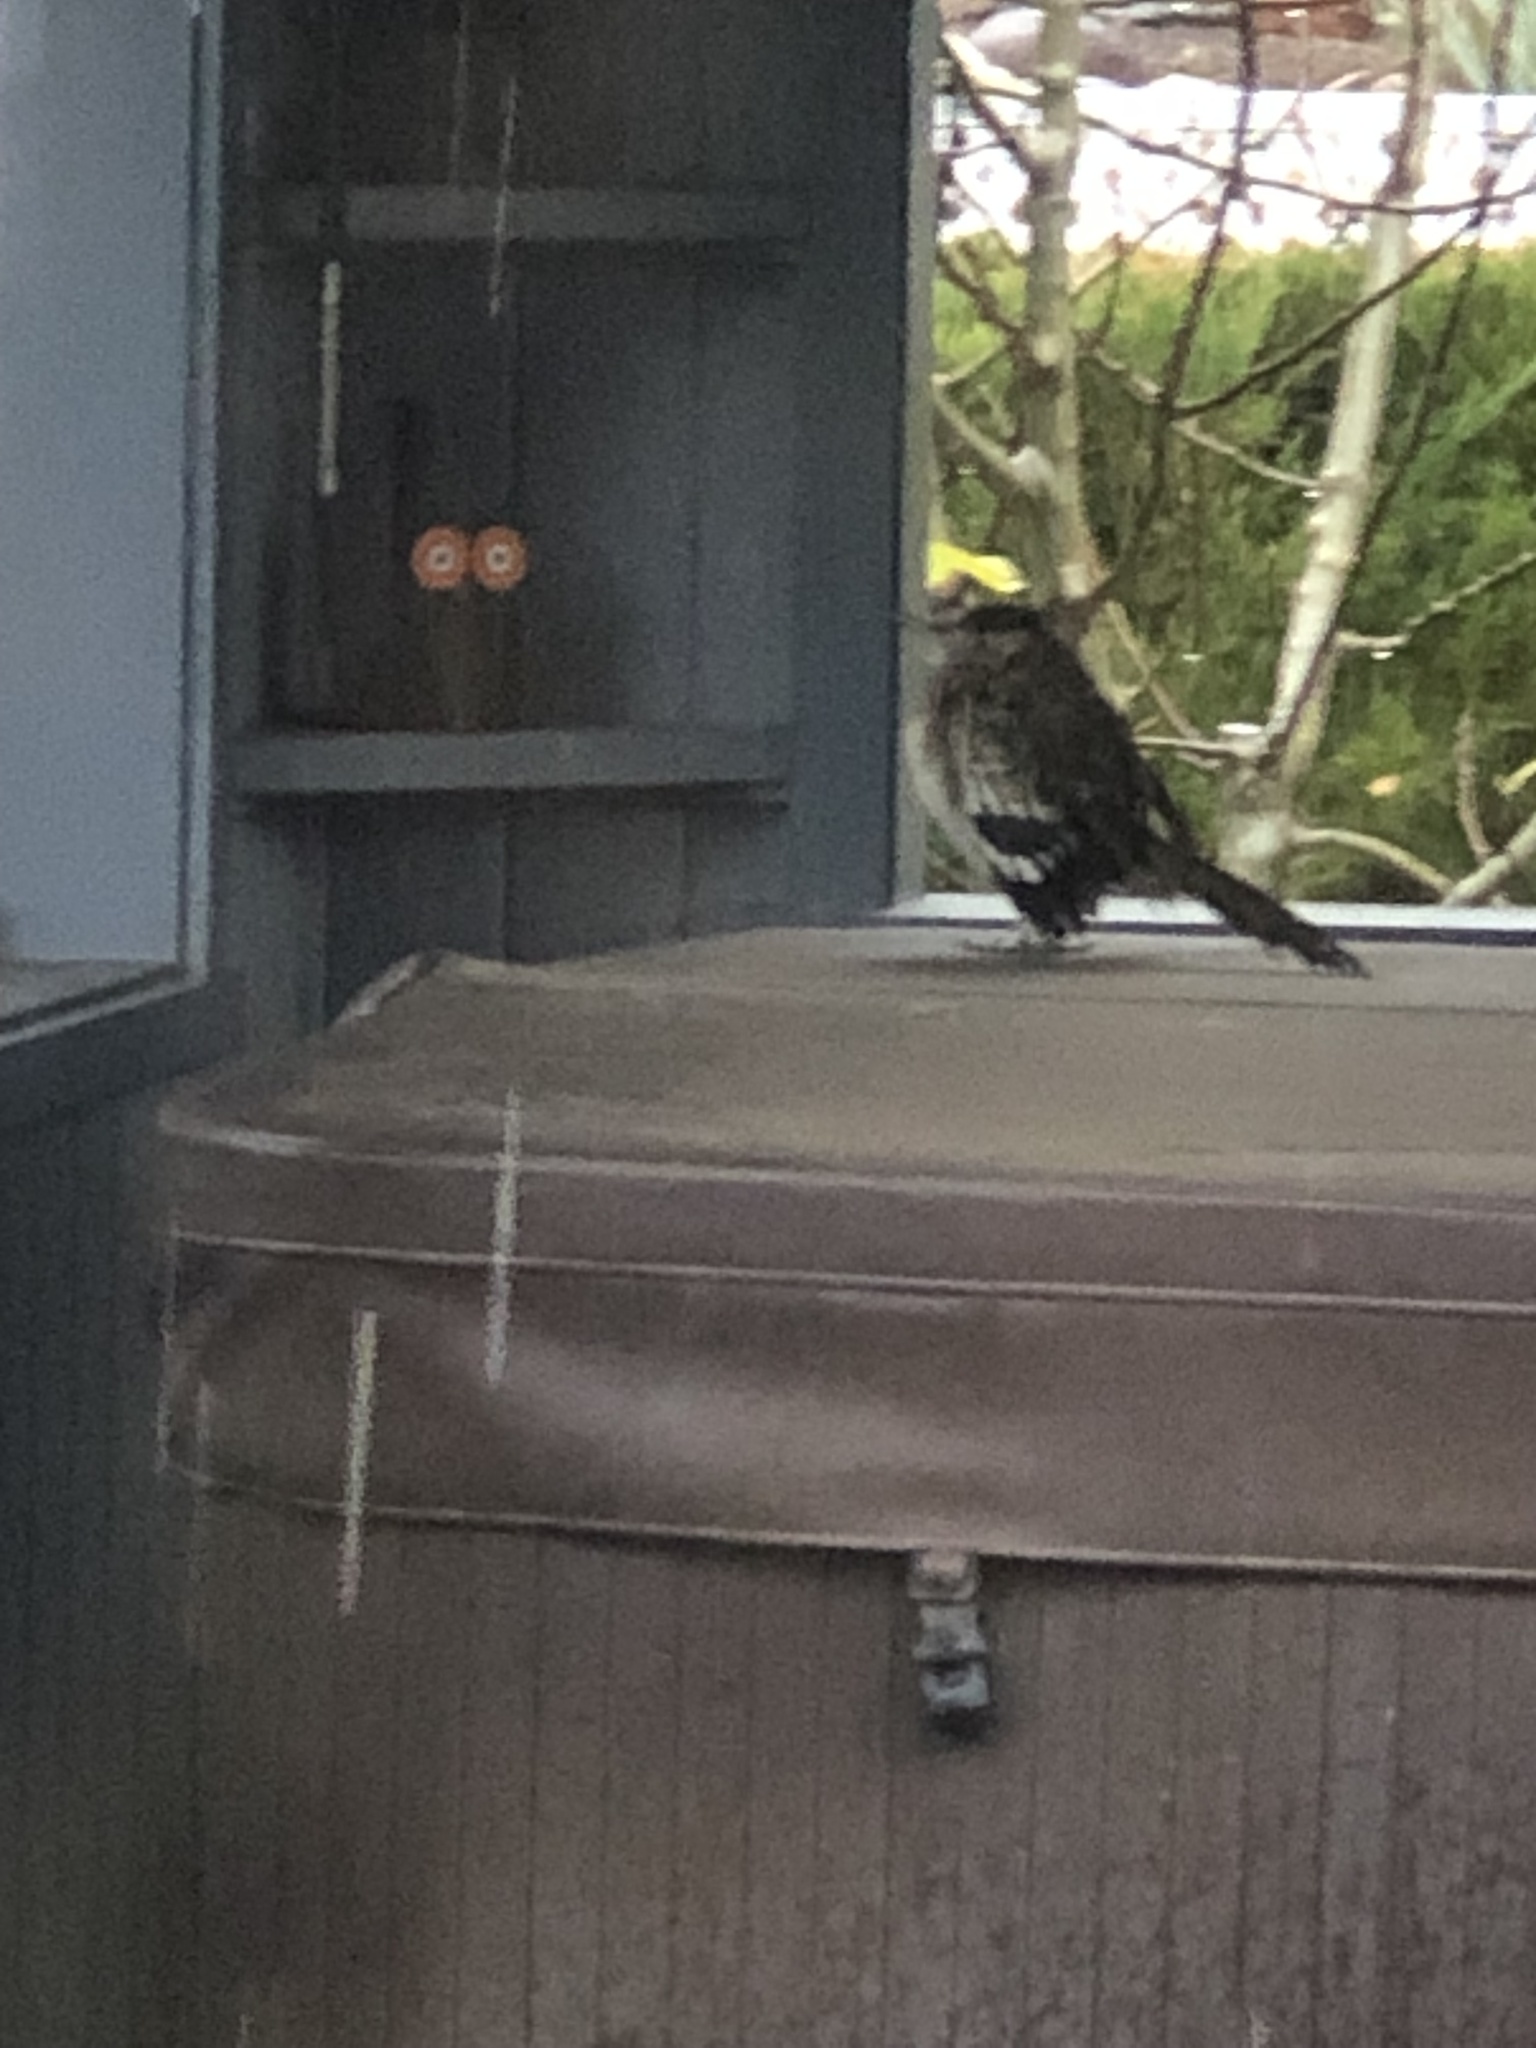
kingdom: Animalia
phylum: Chordata
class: Aves
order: Cuculiformes
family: Cuculidae
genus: Geococcyx
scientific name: Geococcyx californianus
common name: Greater roadrunner
